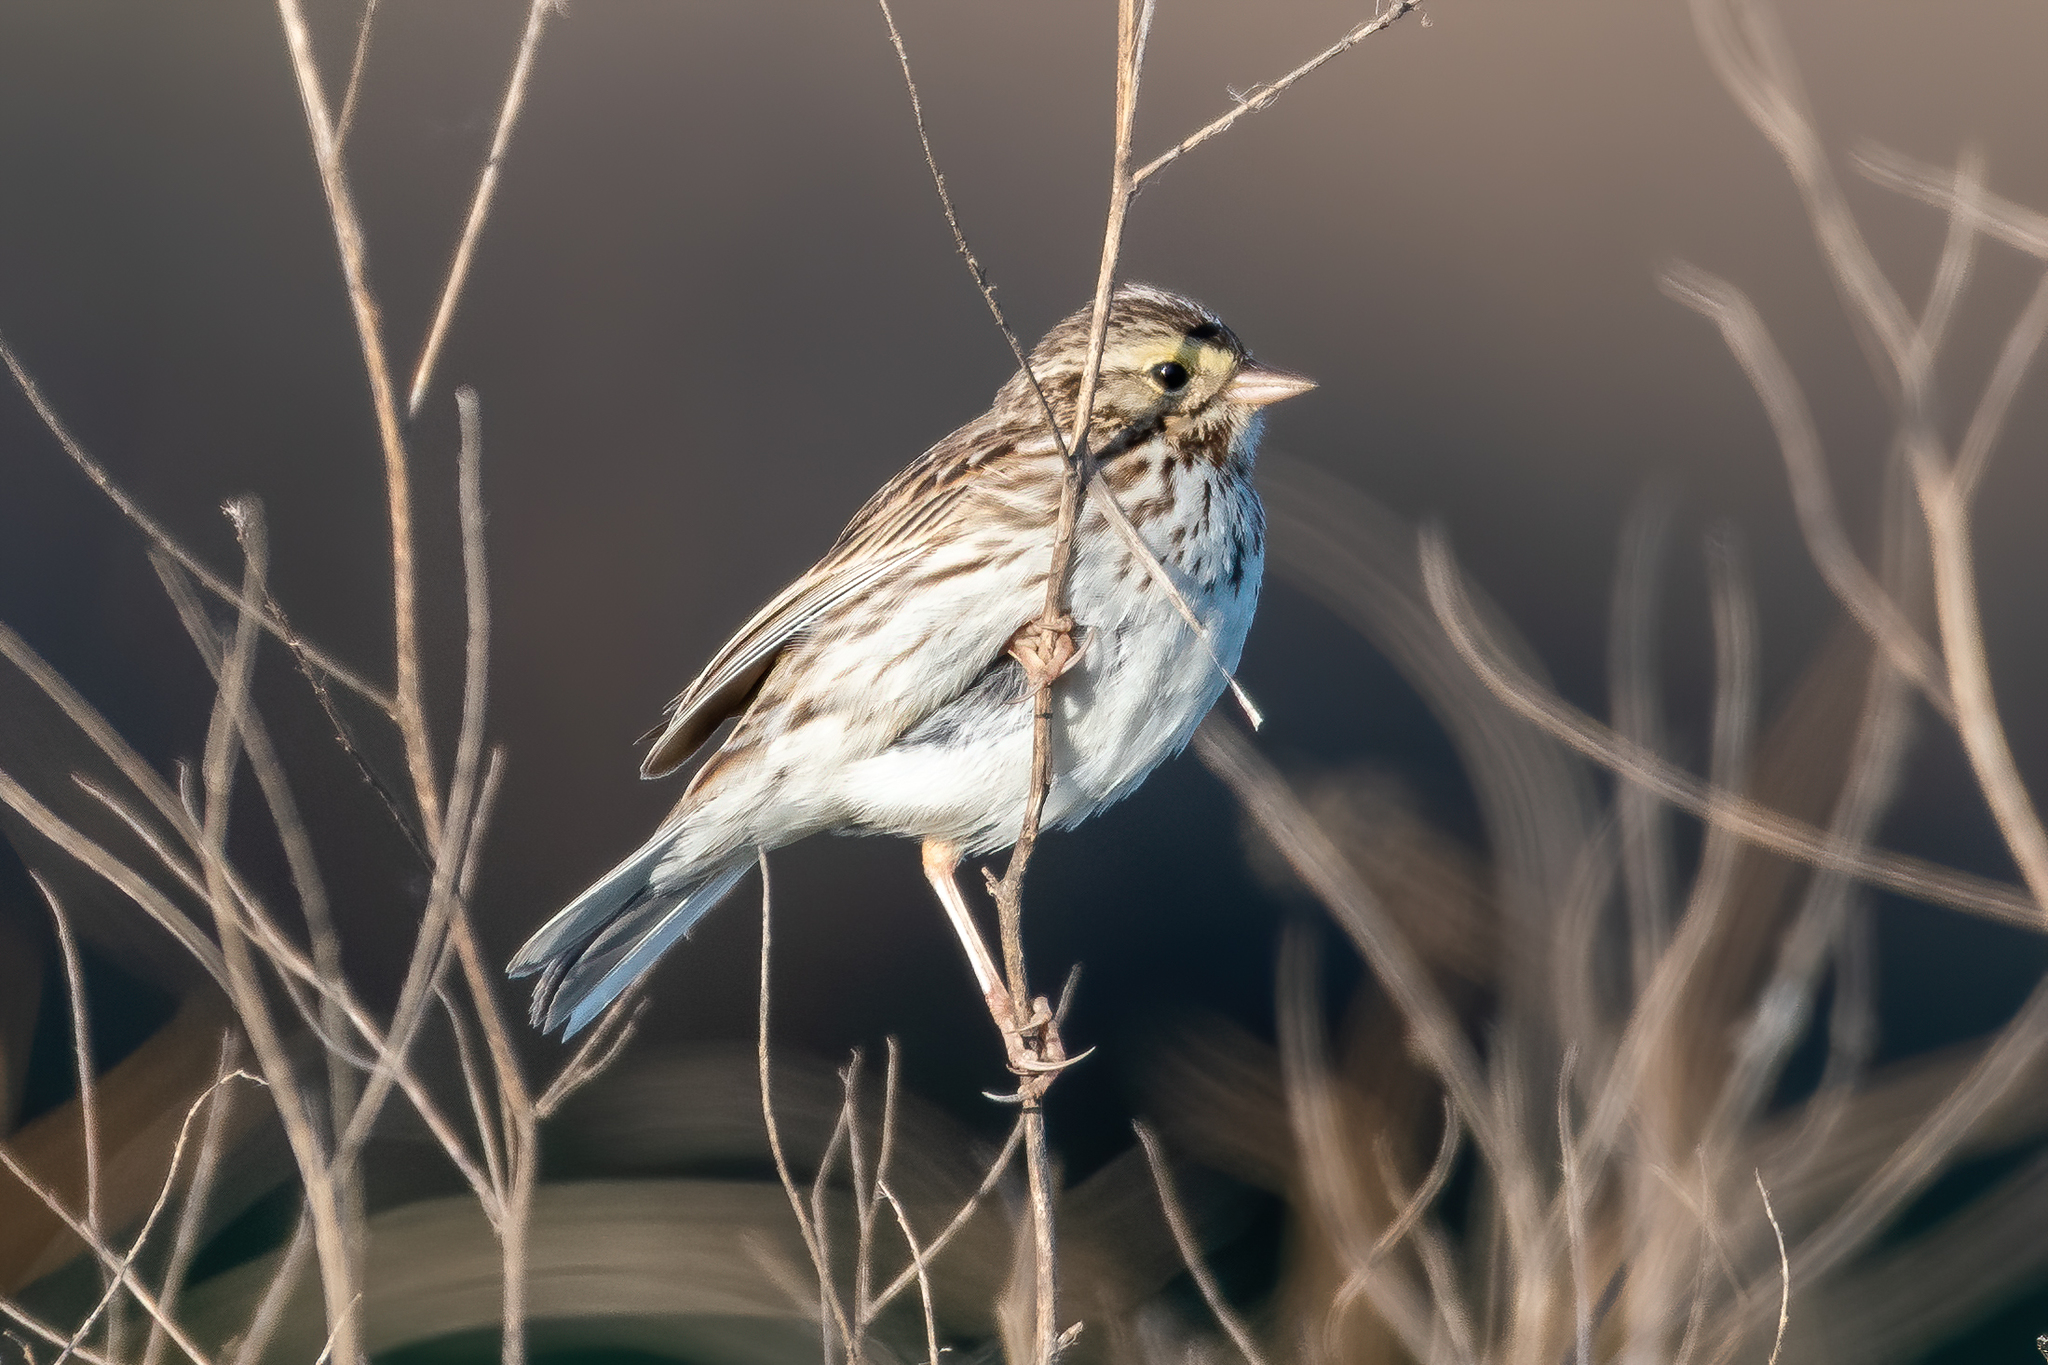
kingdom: Animalia
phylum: Chordata
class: Aves
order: Passeriformes
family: Passerellidae
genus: Passerculus
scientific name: Passerculus sandwichensis
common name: Savannah sparrow
